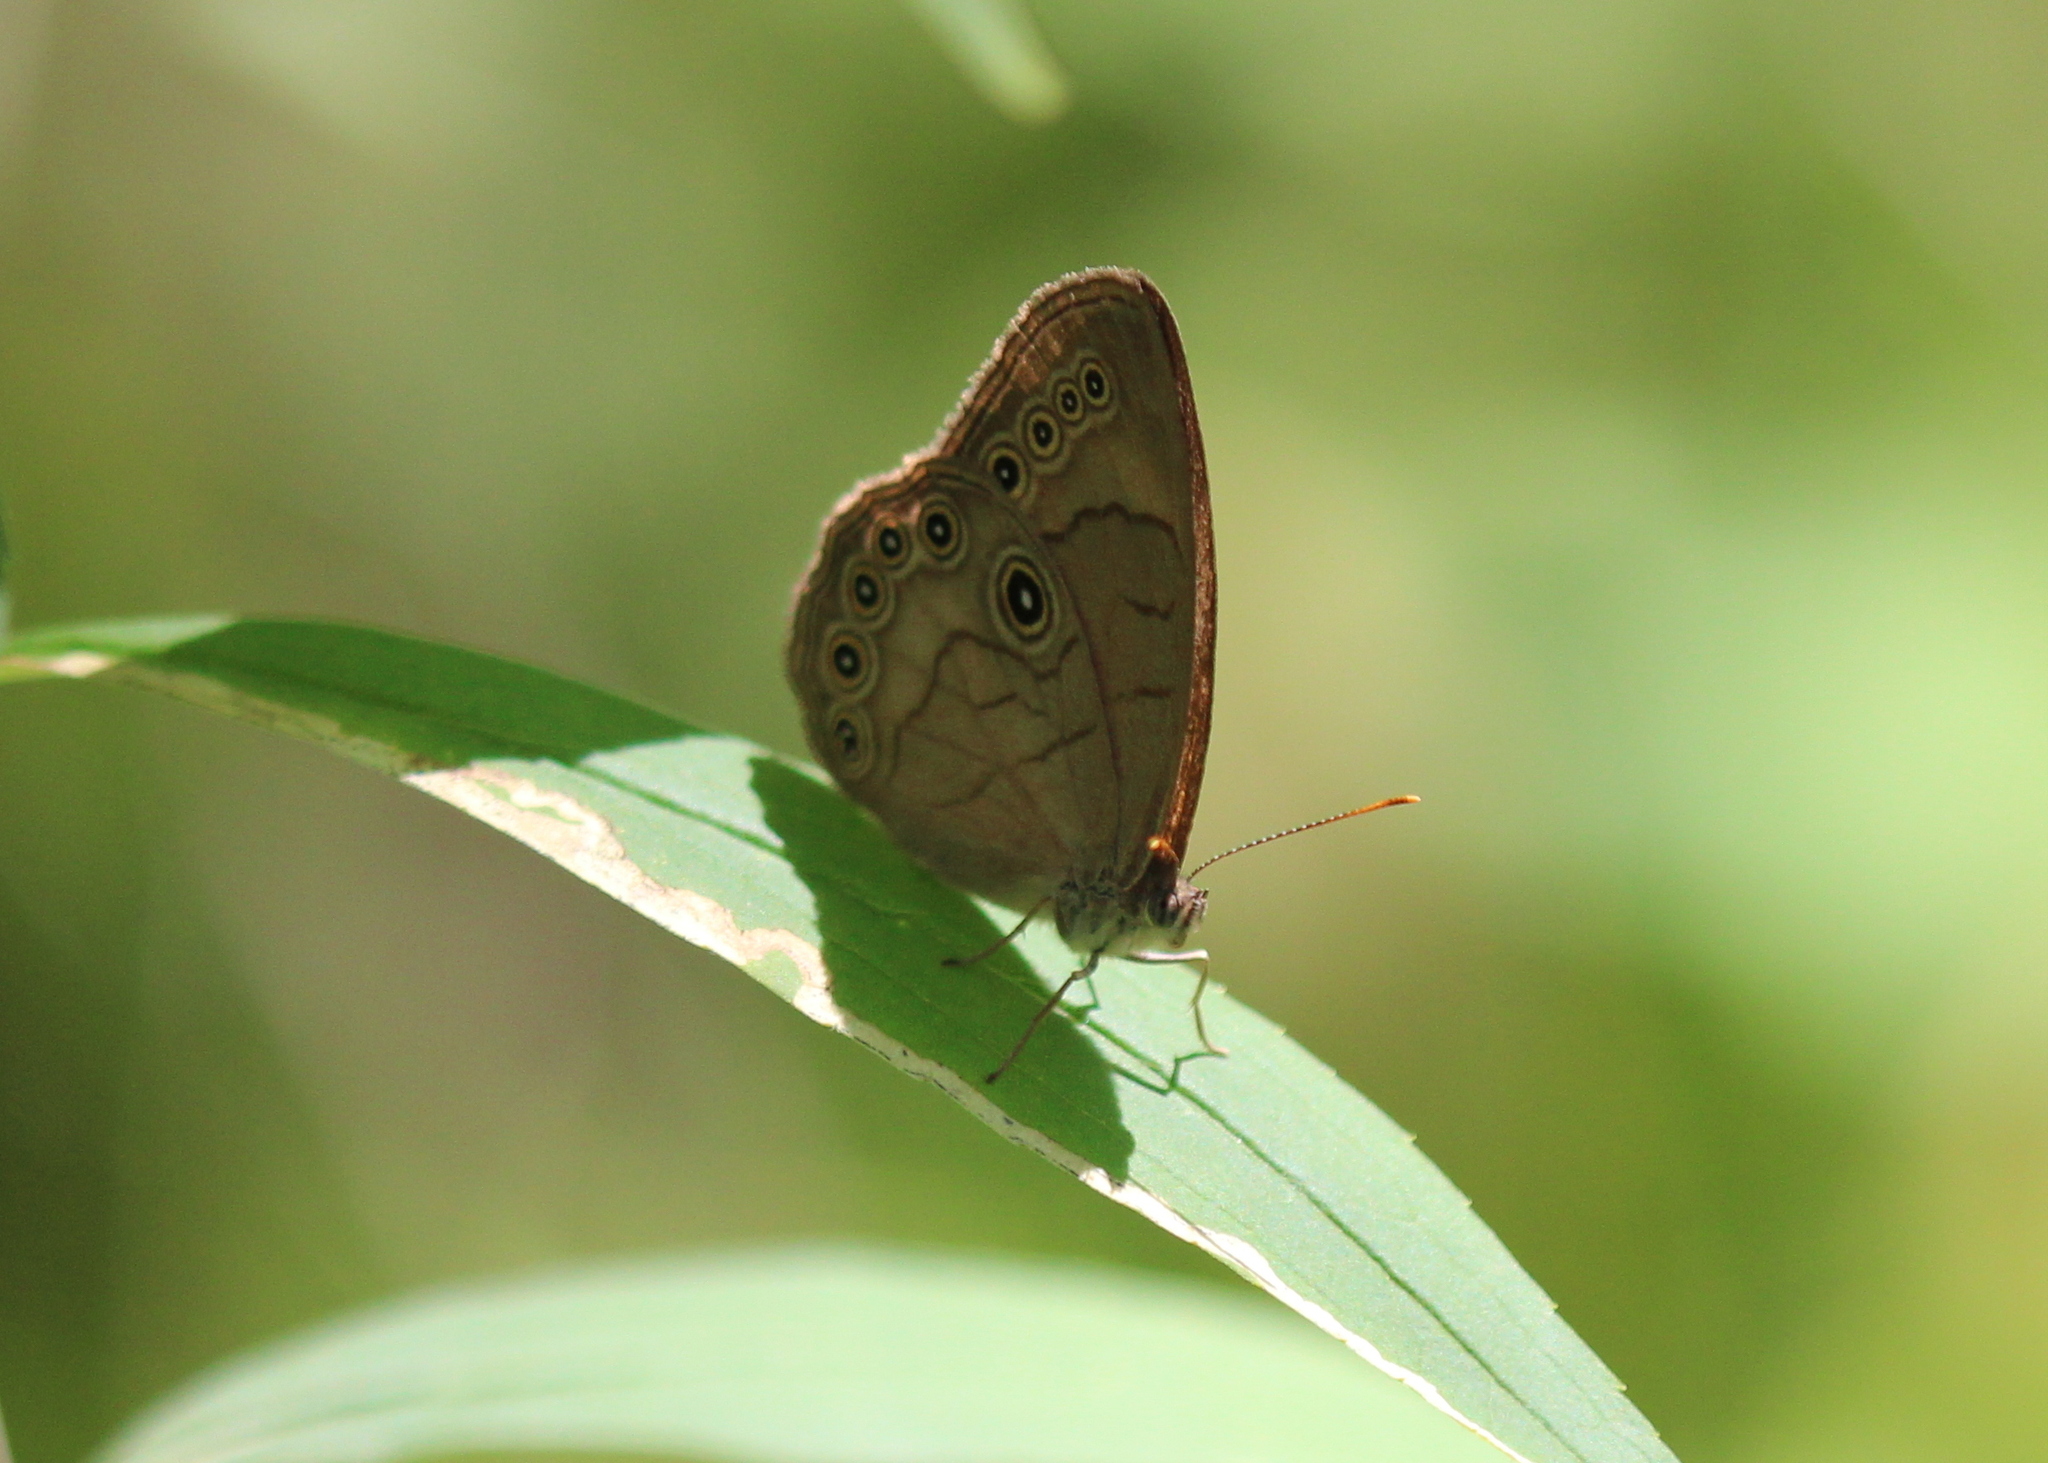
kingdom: Animalia
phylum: Arthropoda
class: Insecta
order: Lepidoptera
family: Nymphalidae
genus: Lethe
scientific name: Lethe eurydice
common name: Eyed brown
